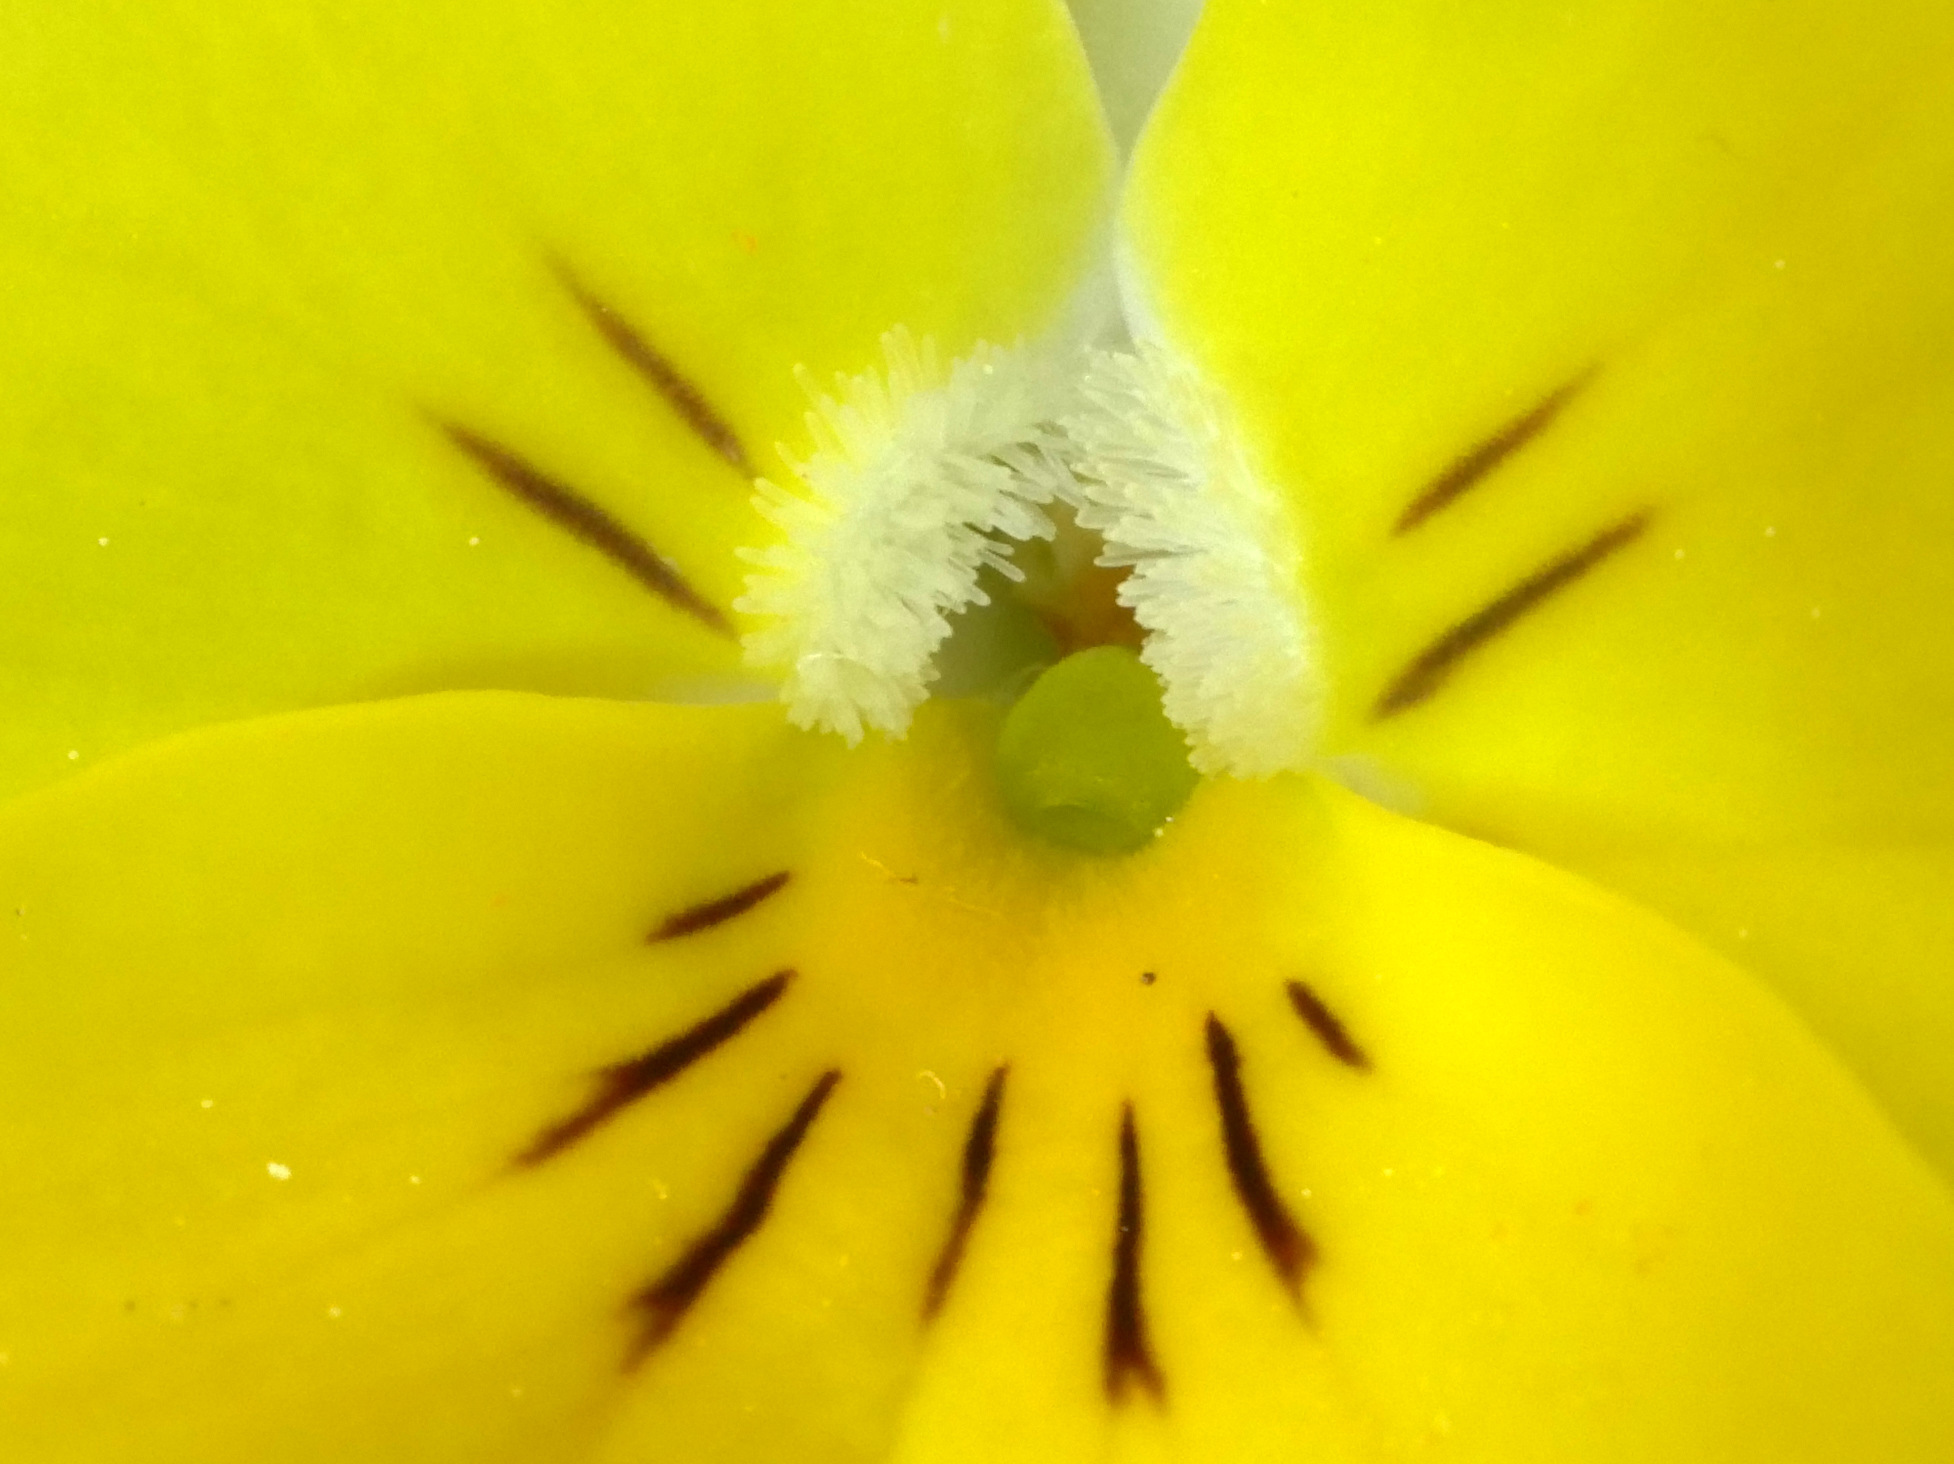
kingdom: Plantae
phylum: Tracheophyta
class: Magnoliopsida
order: Malpighiales
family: Violaceae
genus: Viola
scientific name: Viola williamsii
